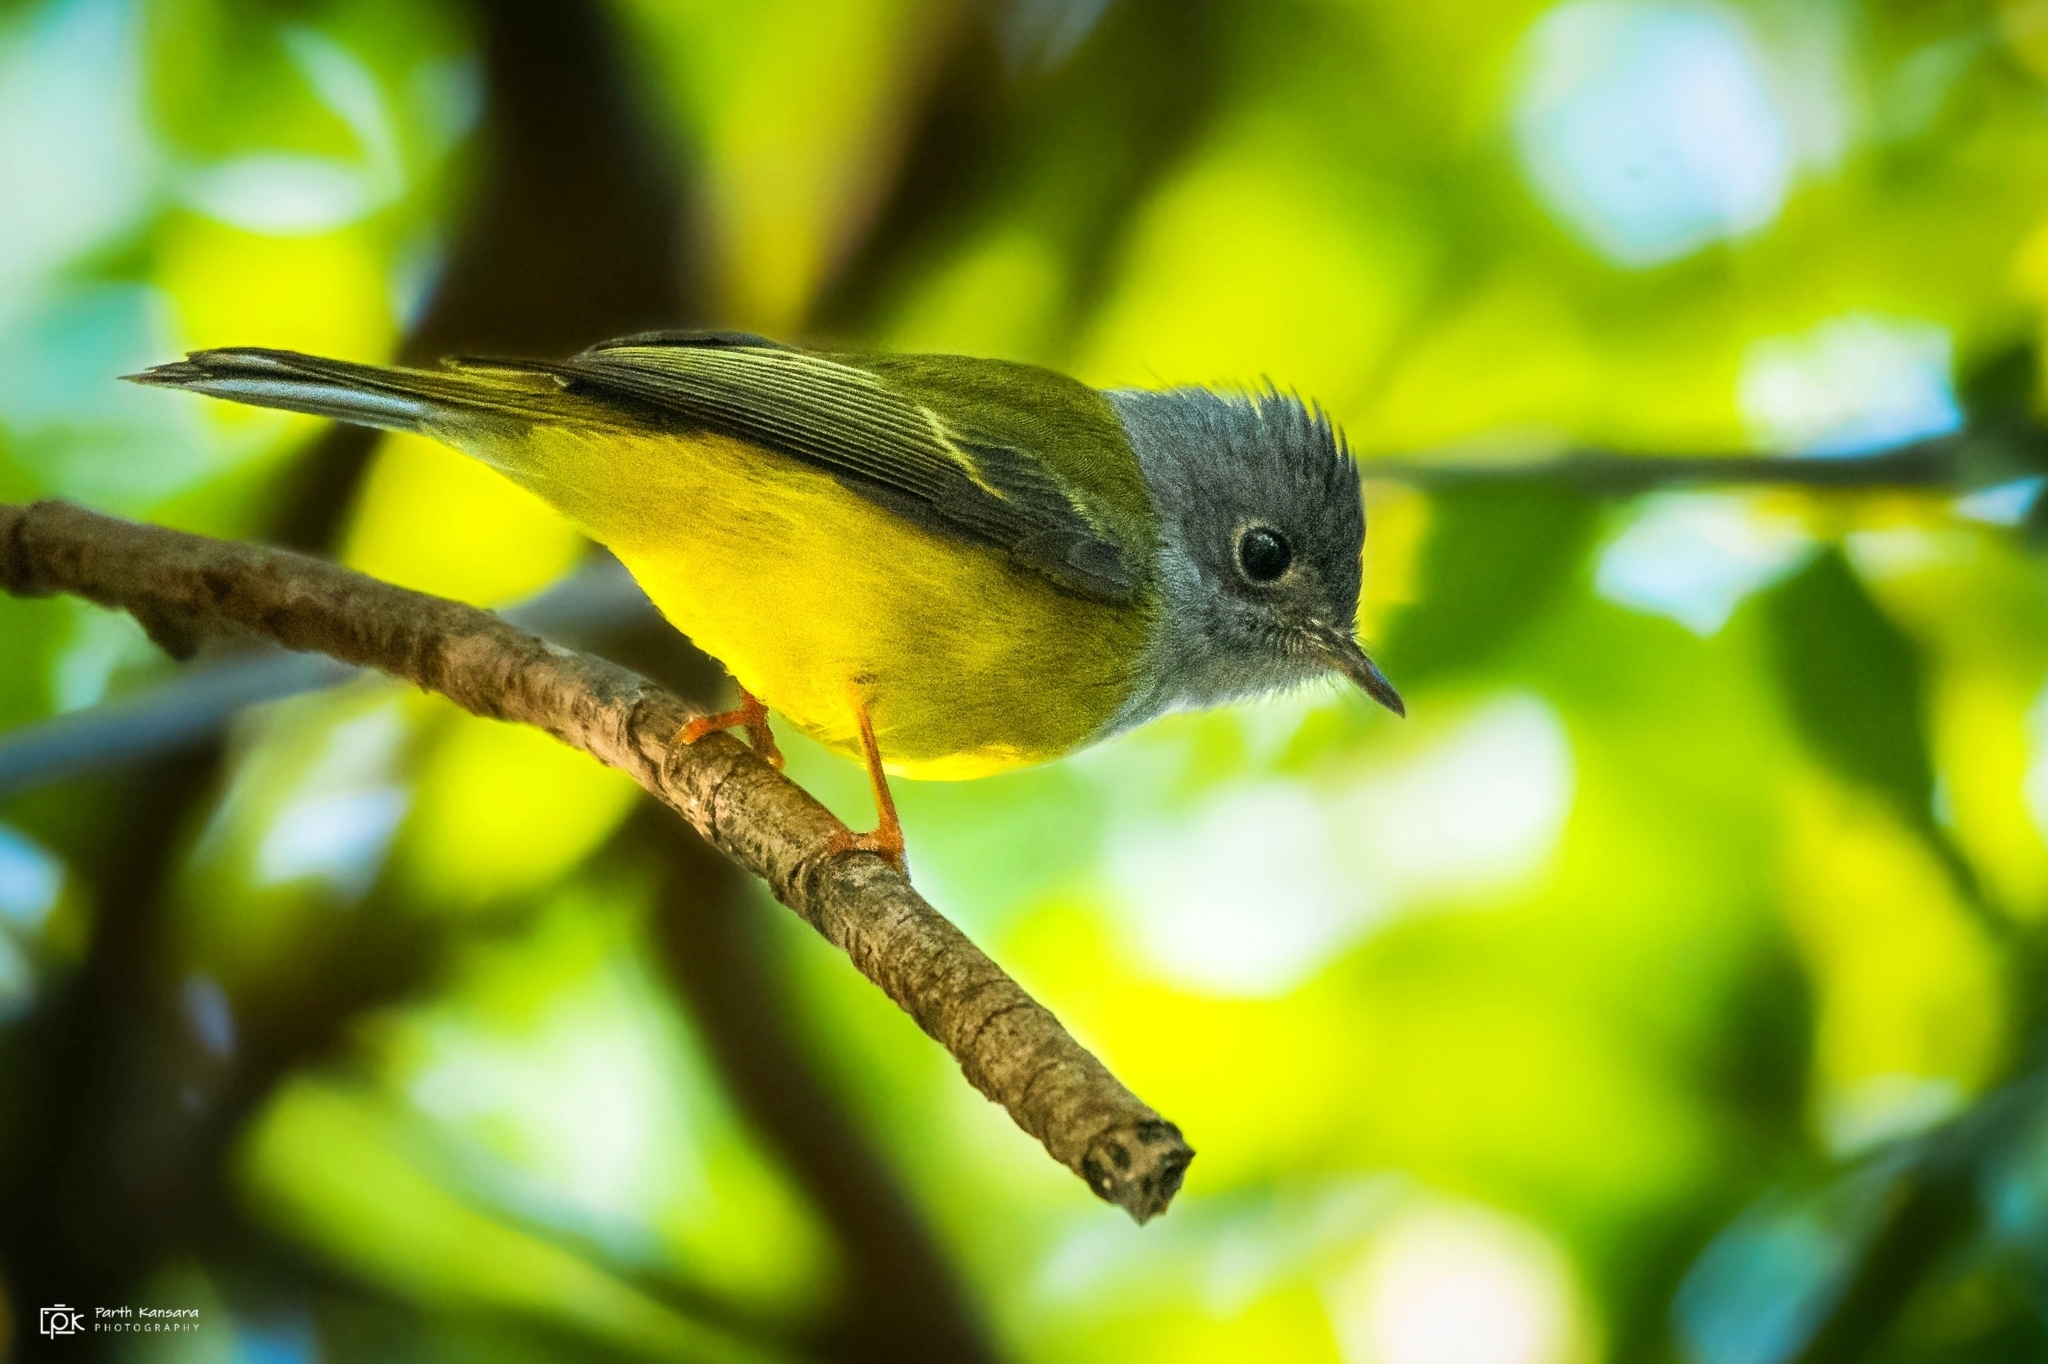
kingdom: Animalia
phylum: Chordata
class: Aves
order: Passeriformes
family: Stenostiridae
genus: Culicicapa
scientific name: Culicicapa ceylonensis
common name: Grey-headed canary-flycatcher
